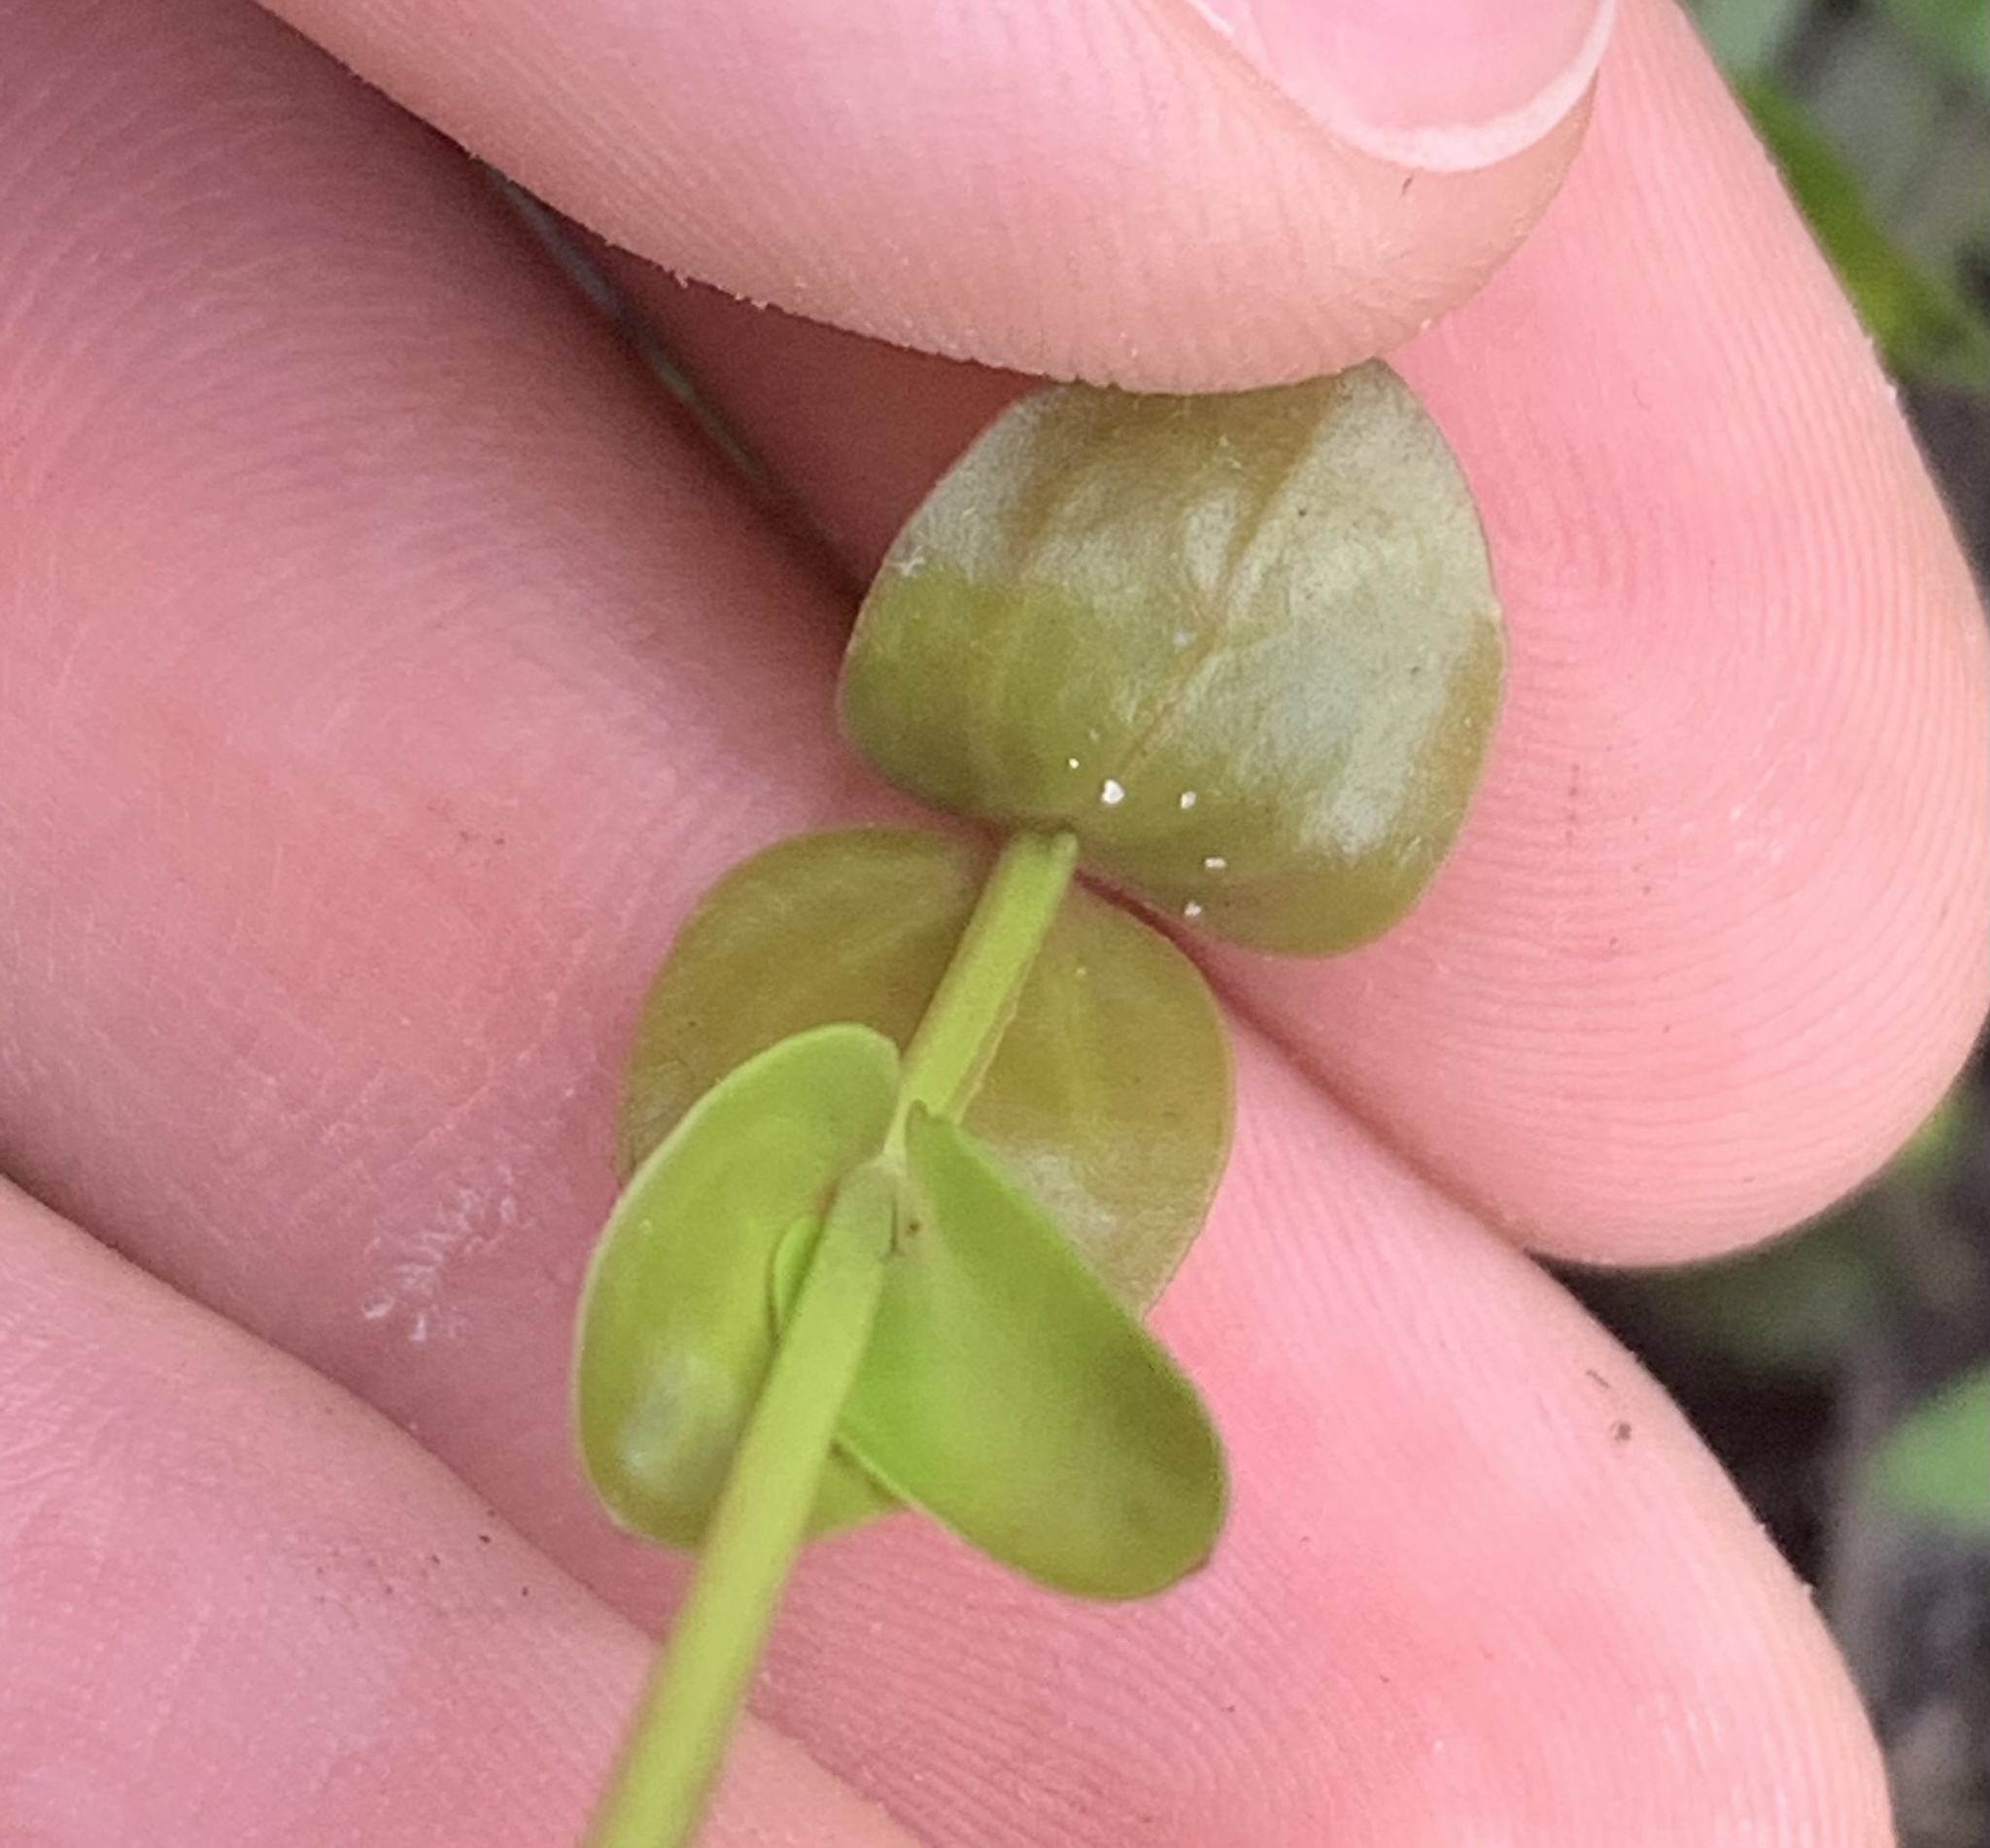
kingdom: Plantae
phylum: Tracheophyta
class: Magnoliopsida
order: Lamiales
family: Linderniaceae
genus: Lindernia
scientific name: Lindernia grandiflora
